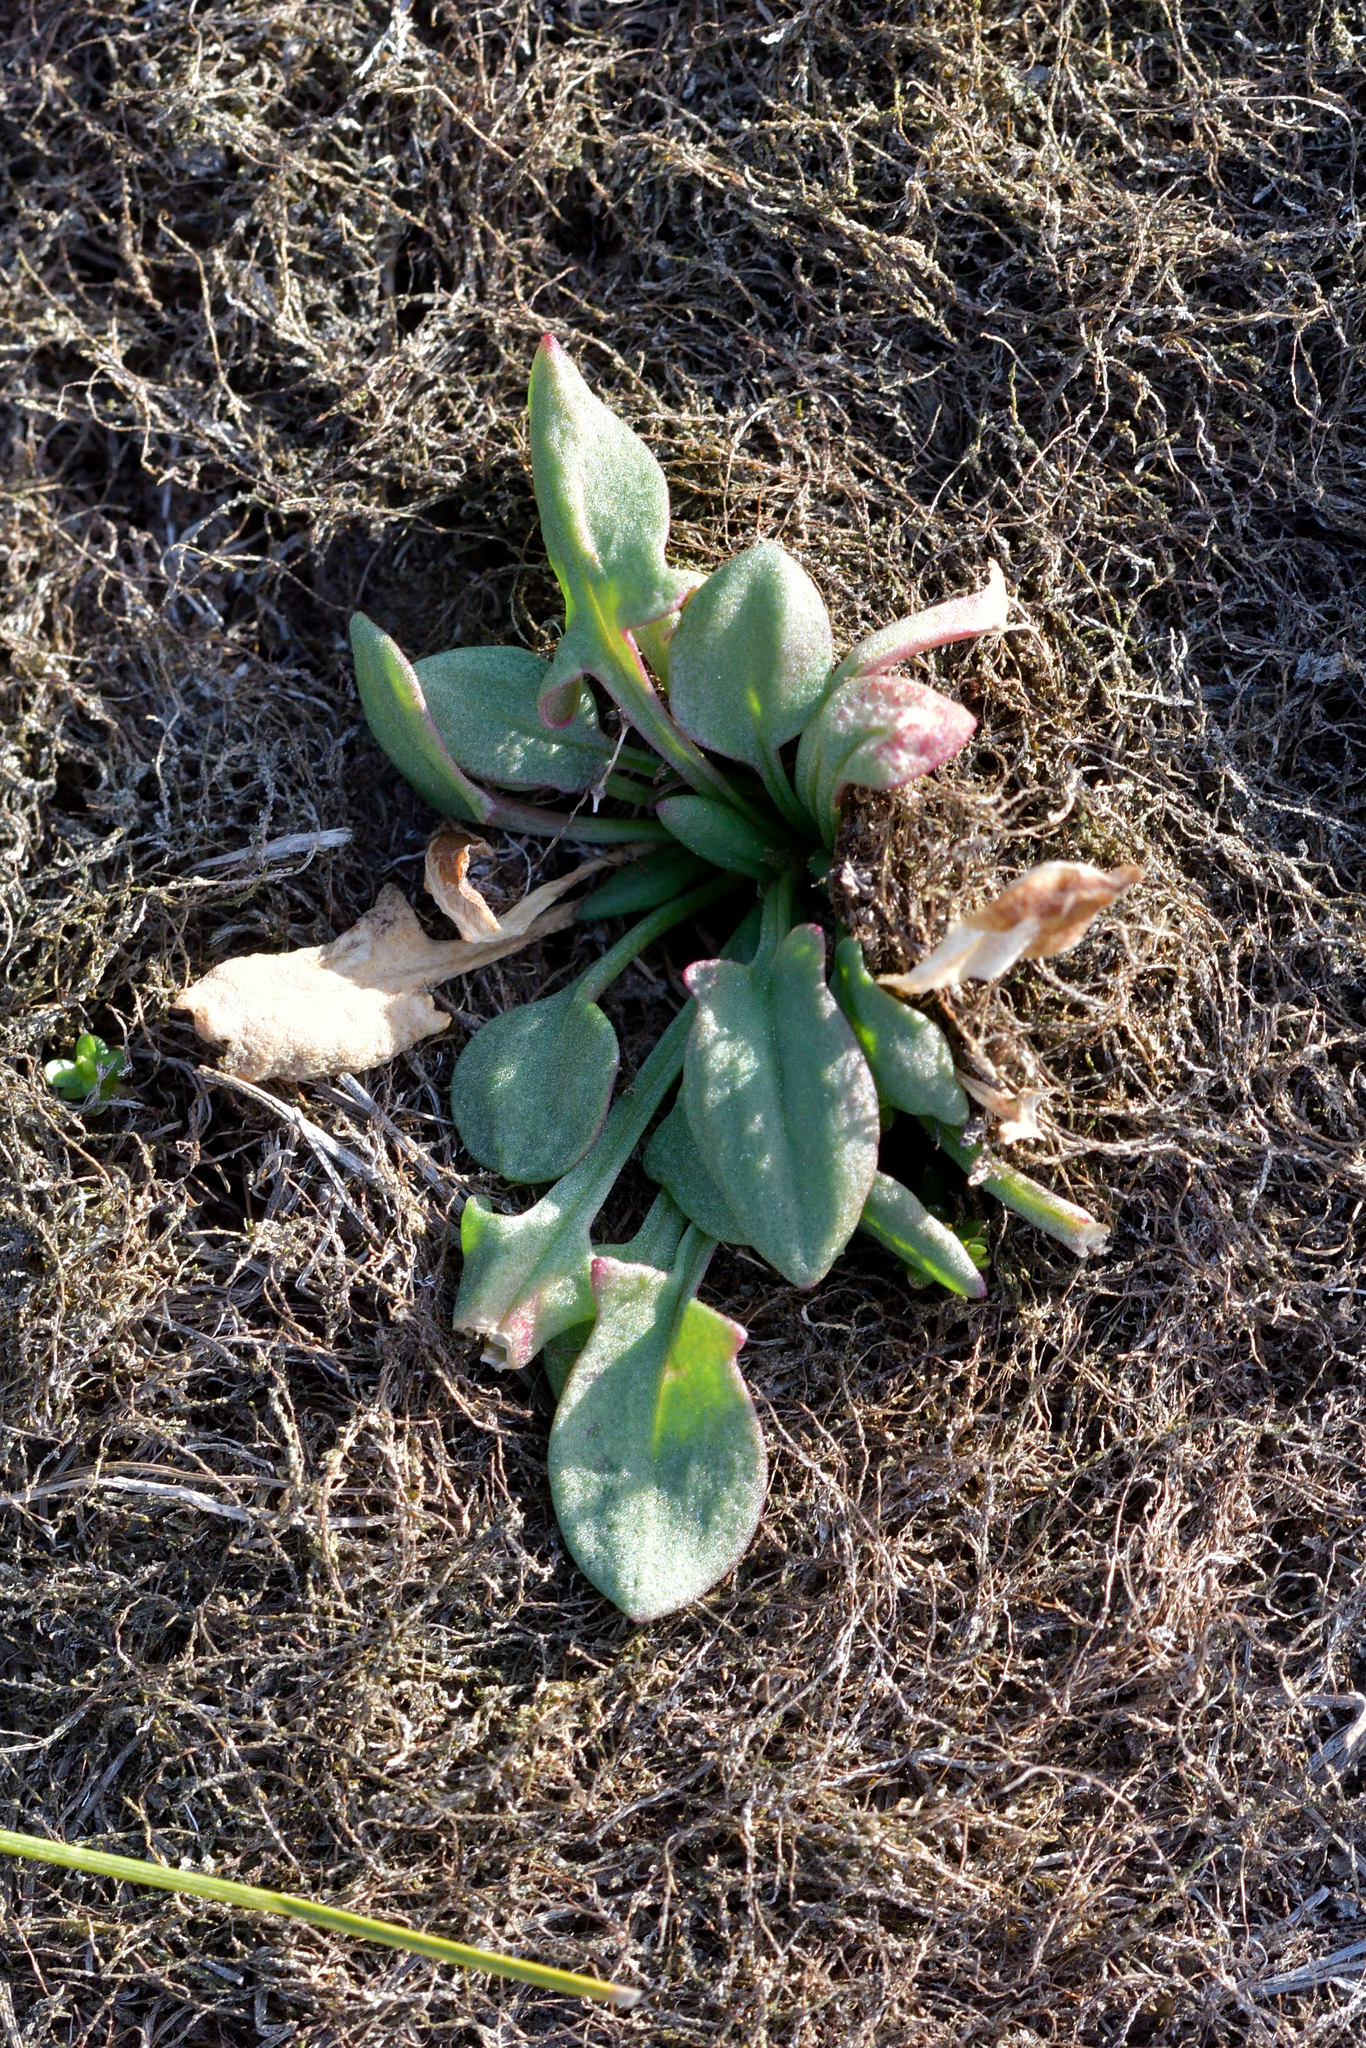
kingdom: Plantae
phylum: Tracheophyta
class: Magnoliopsida
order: Caryophyllales
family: Polygonaceae
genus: Rumex
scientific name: Rumex acetosella
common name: Common sheep sorrel
